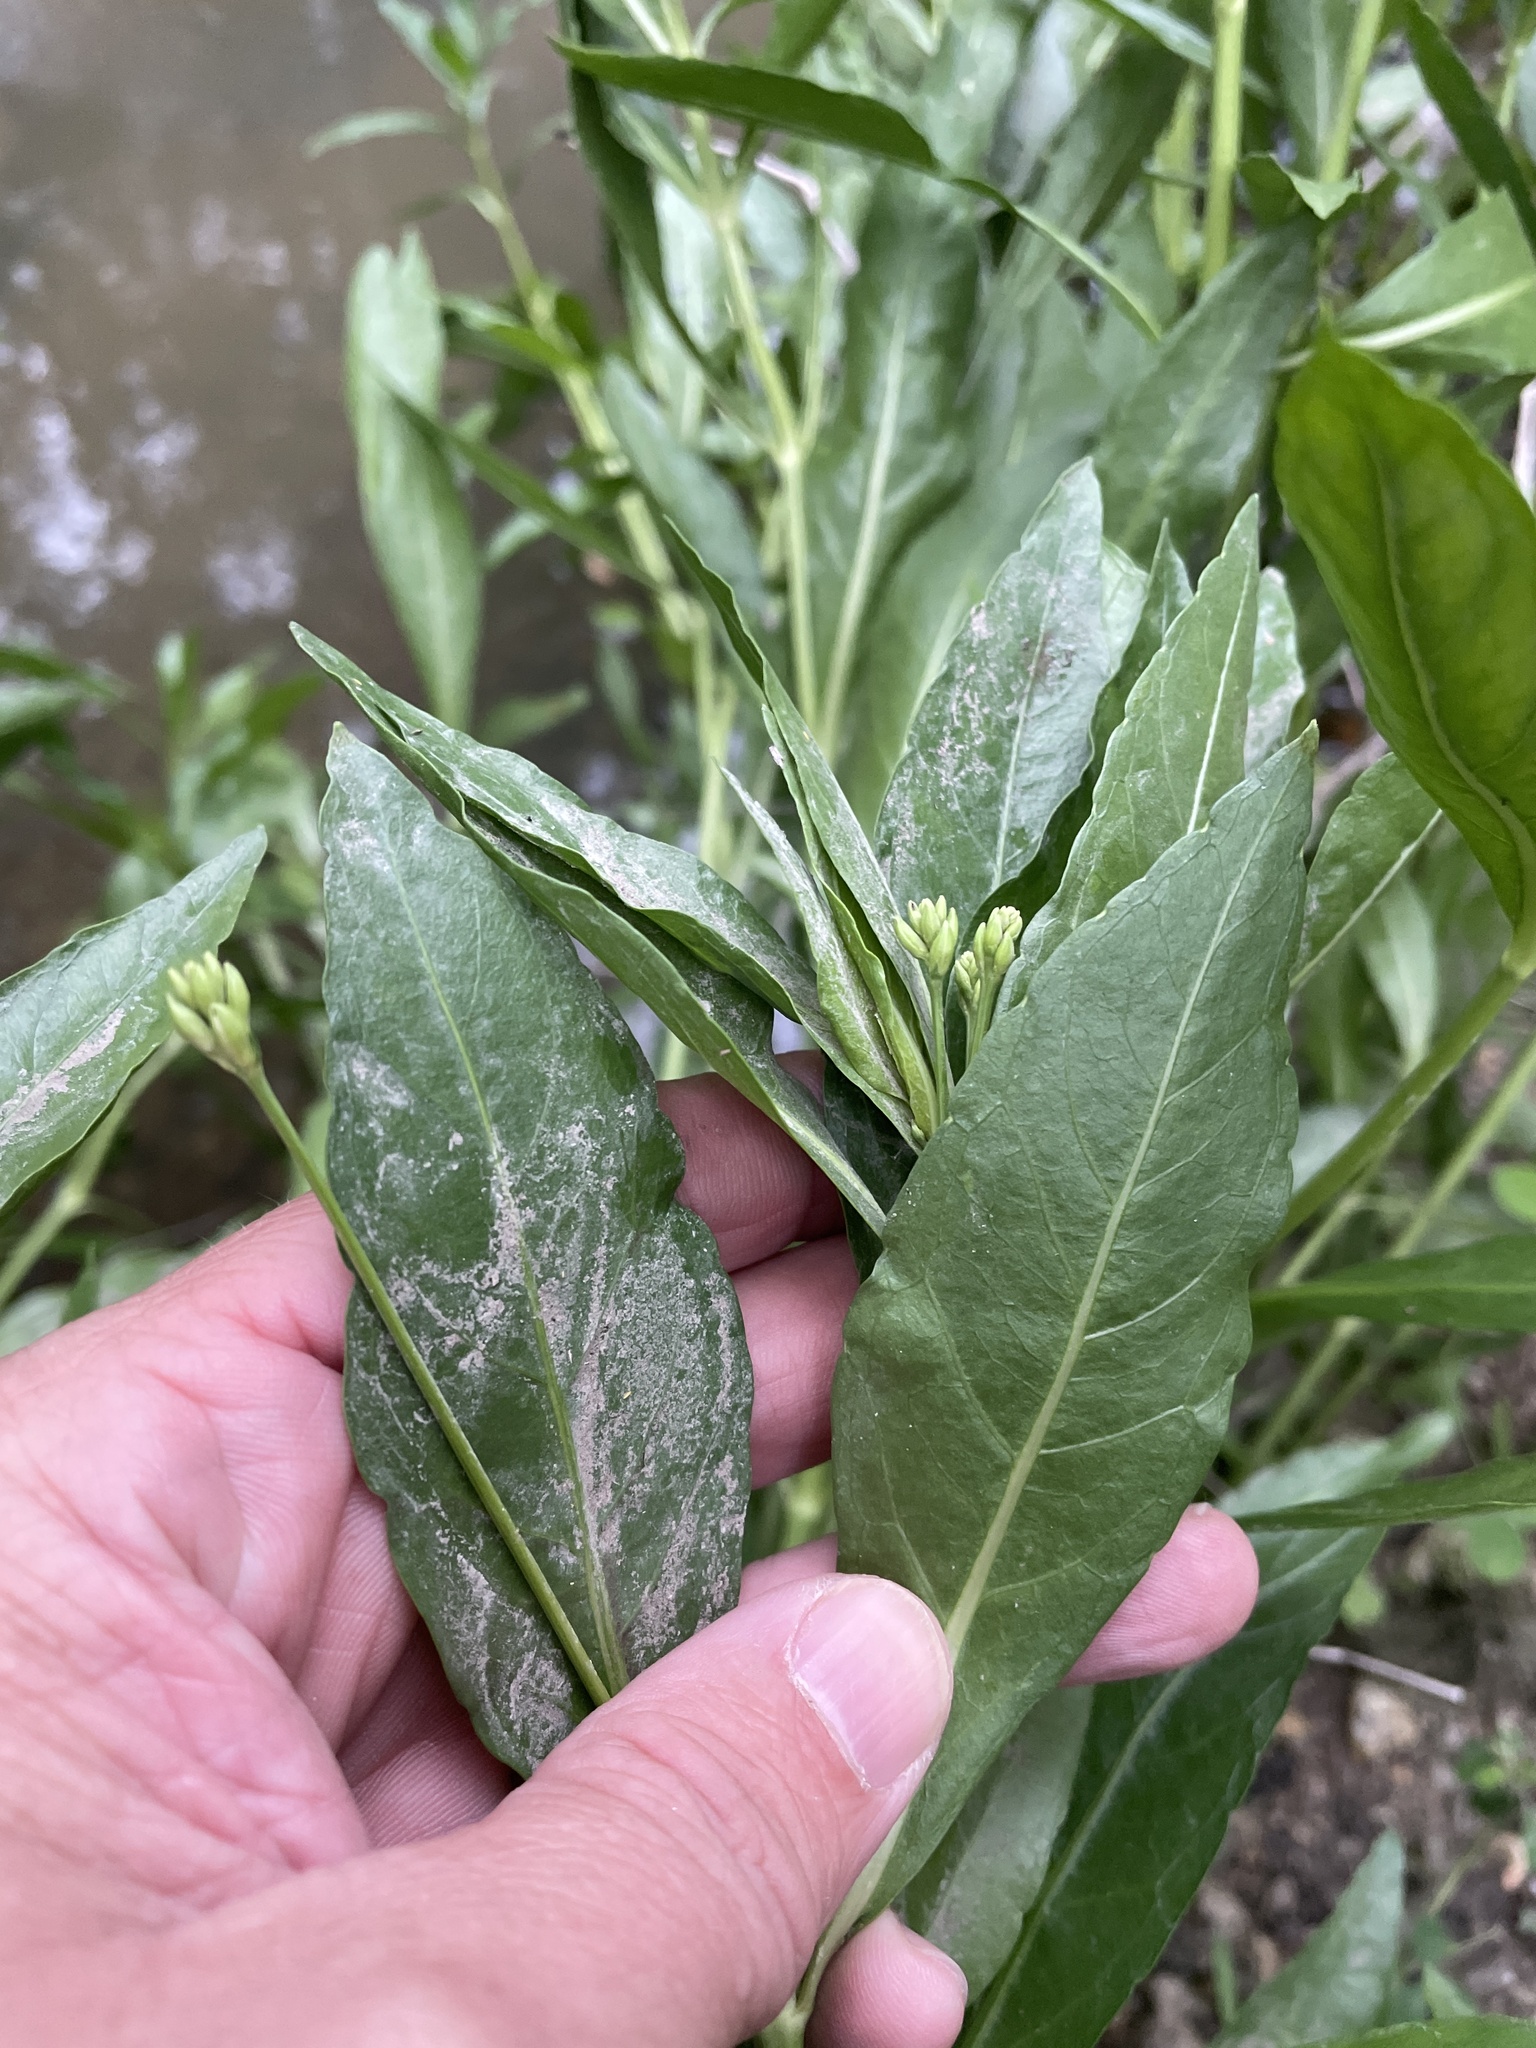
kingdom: Plantae
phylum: Tracheophyta
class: Magnoliopsida
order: Lamiales
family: Acanthaceae
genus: Dianthera
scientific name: Dianthera americana
